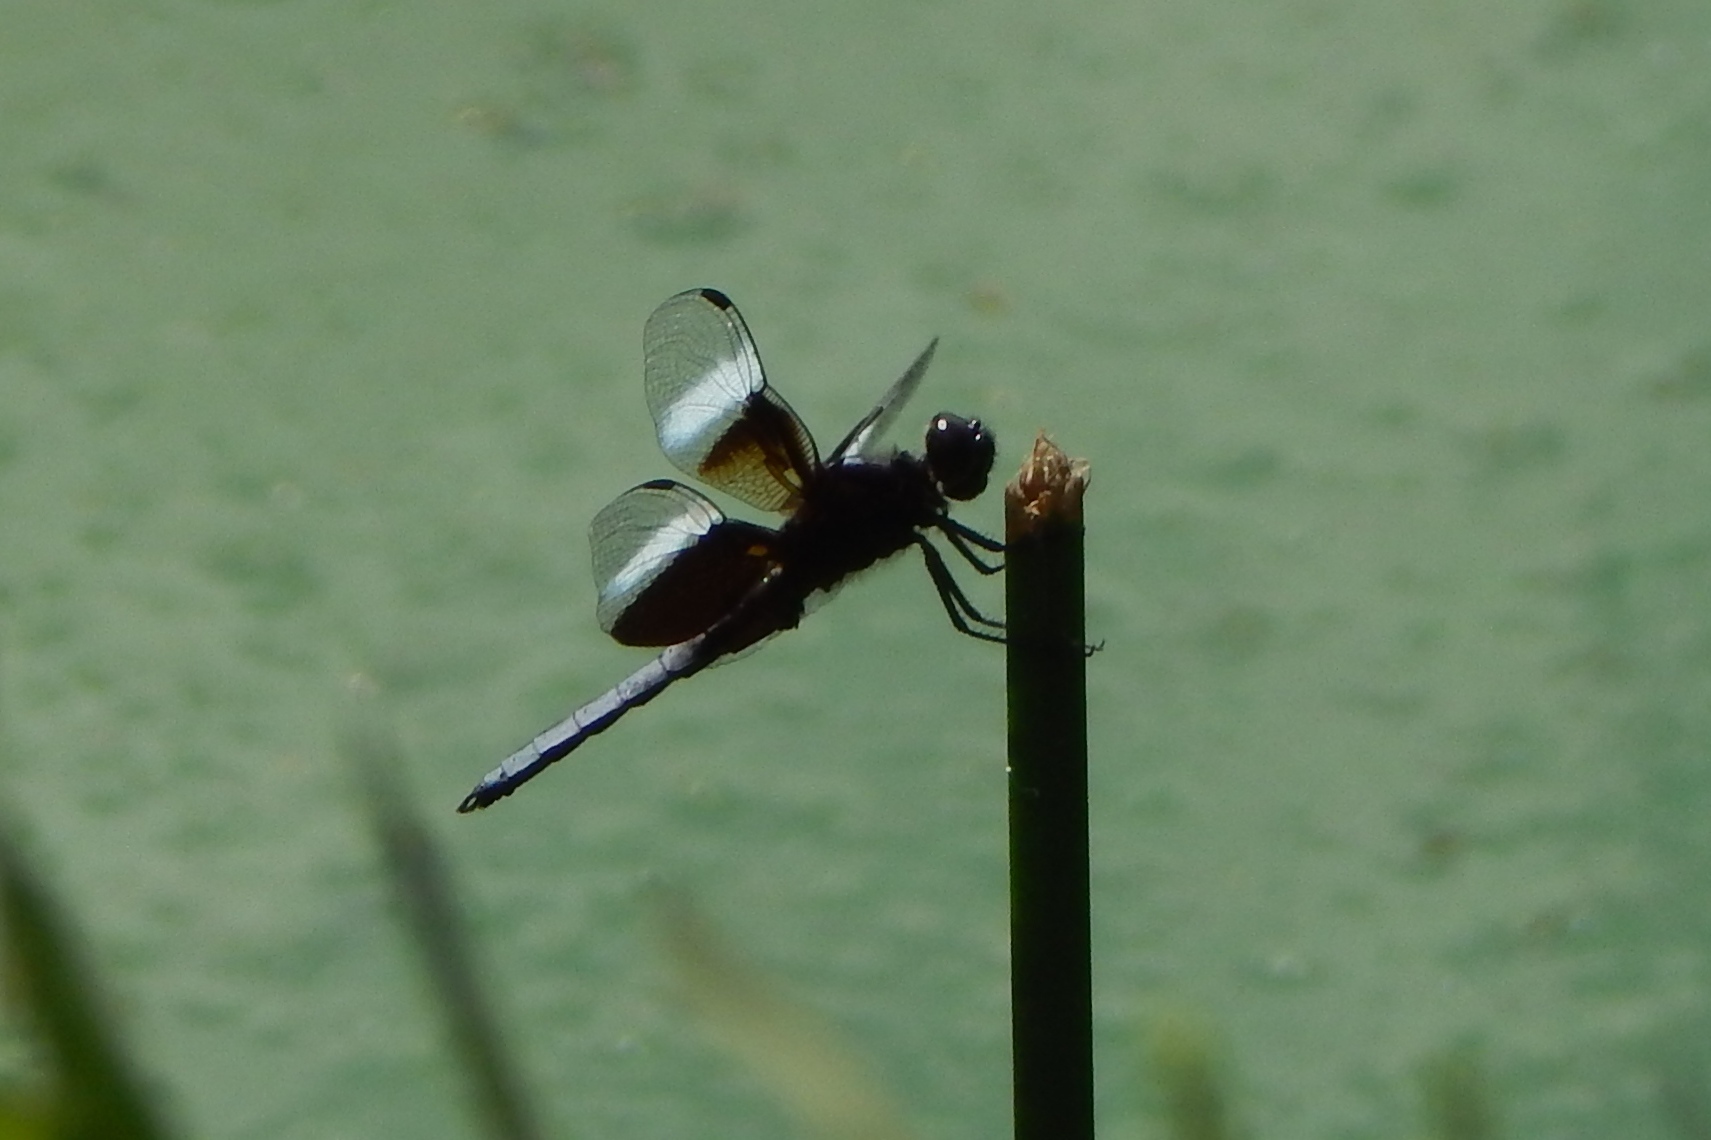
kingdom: Animalia
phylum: Arthropoda
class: Insecta
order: Odonata
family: Libellulidae
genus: Libellula
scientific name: Libellula luctuosa
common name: Widow skimmer
